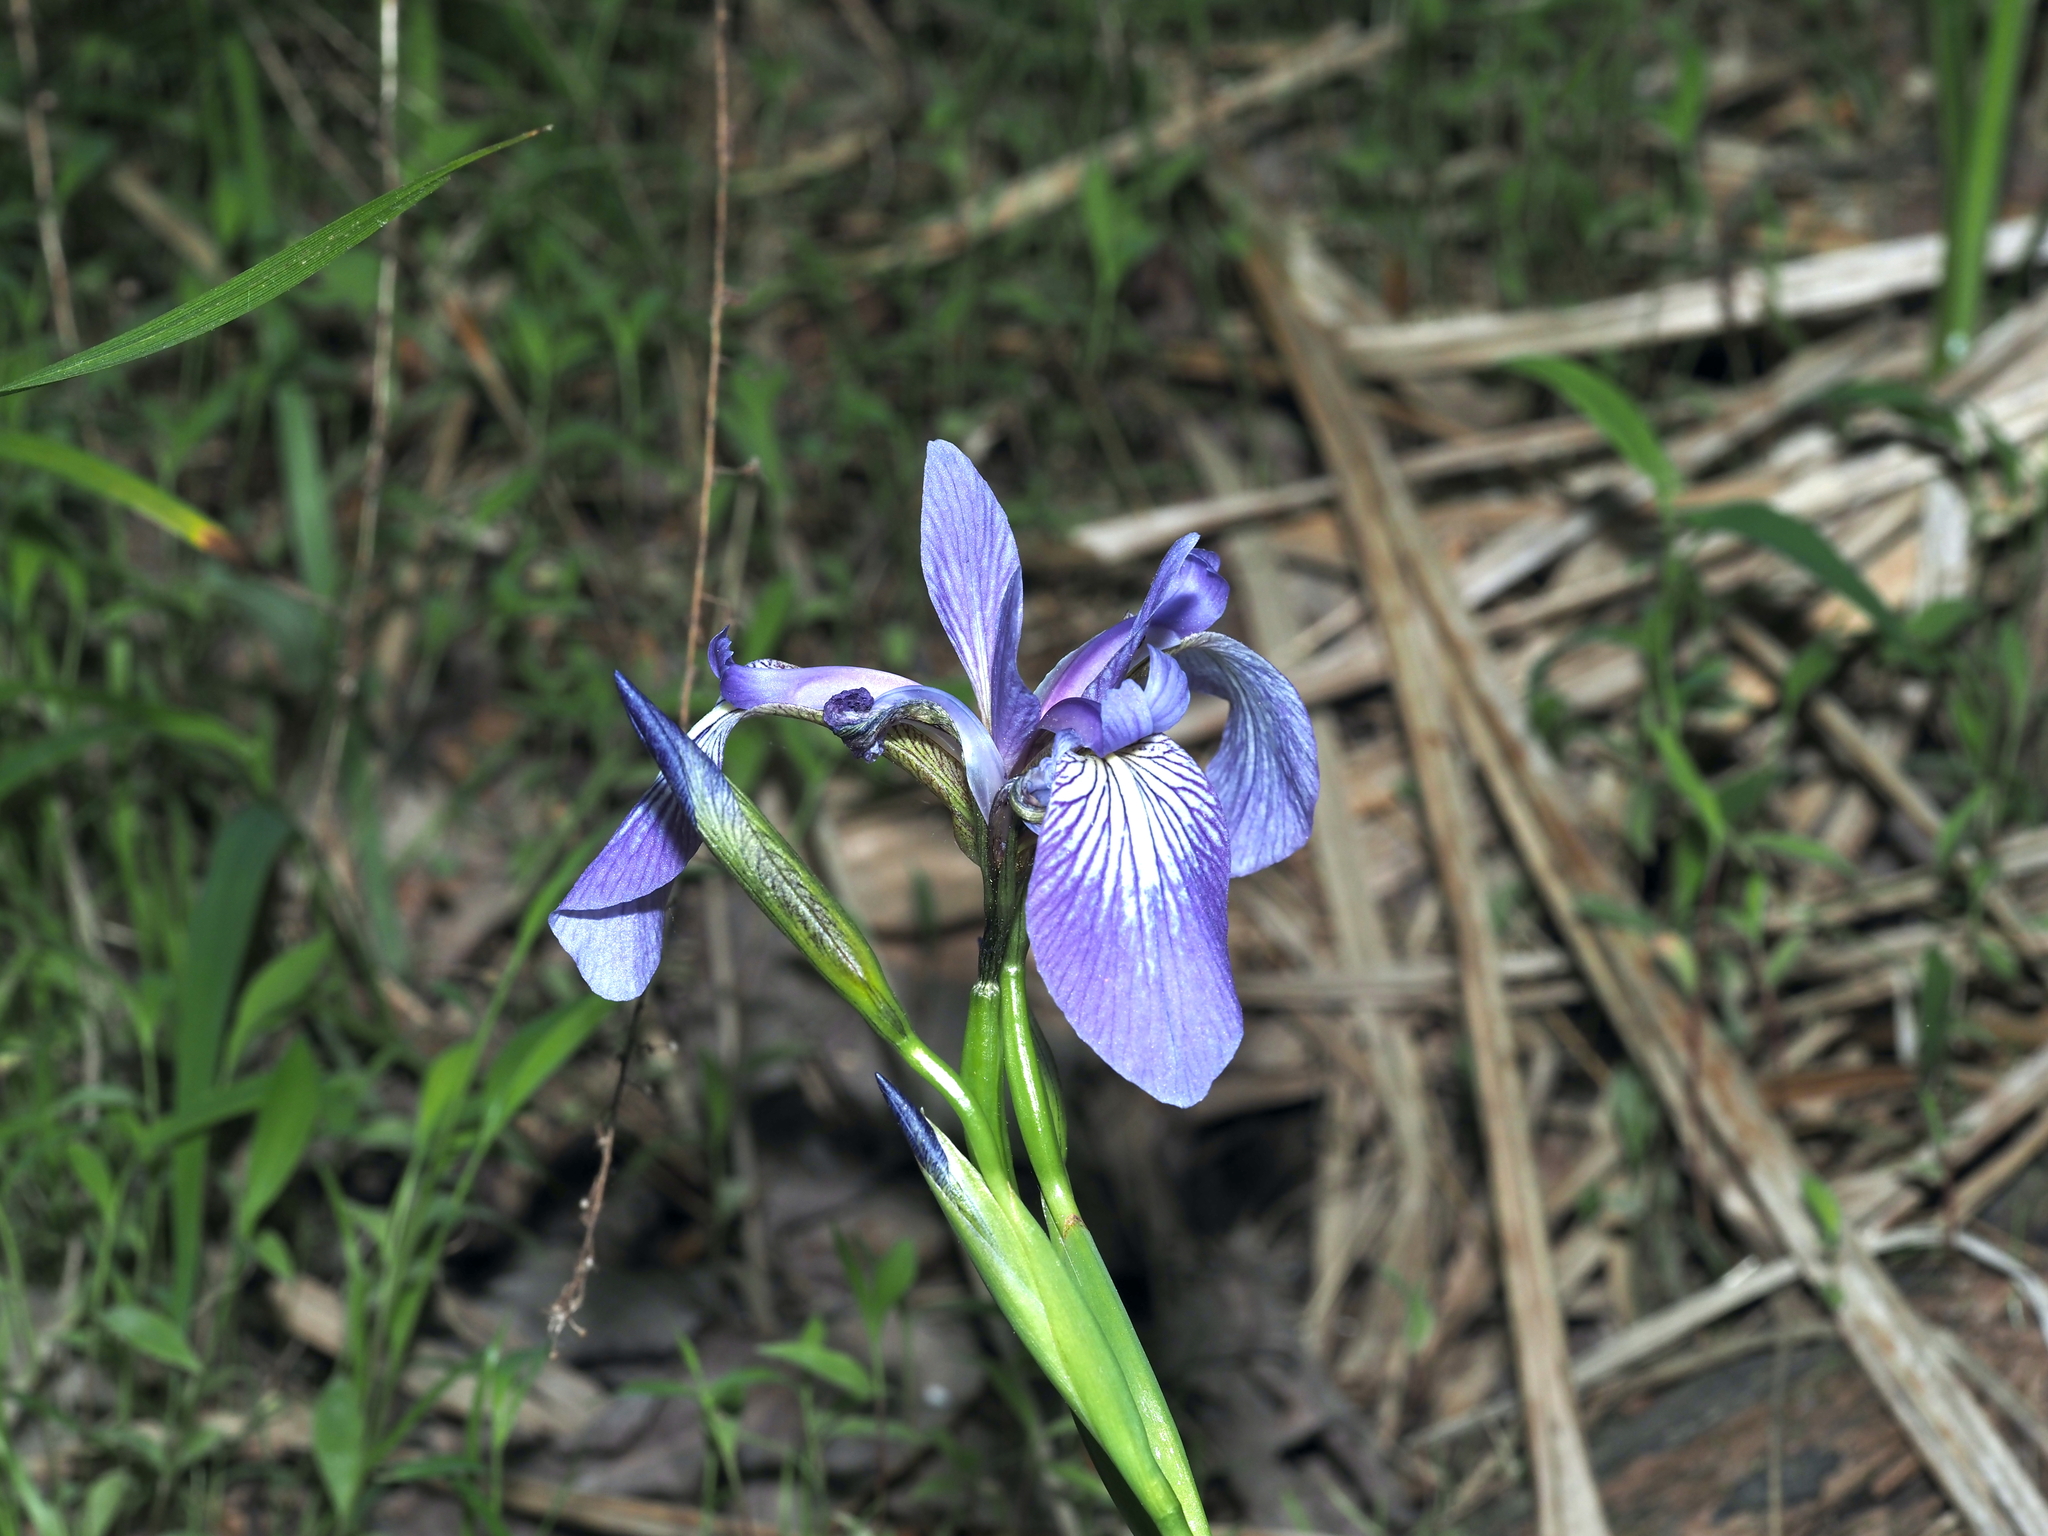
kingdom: Plantae
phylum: Tracheophyta
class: Liliopsida
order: Asparagales
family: Iridaceae
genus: Iris
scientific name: Iris versicolor
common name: Purple iris
